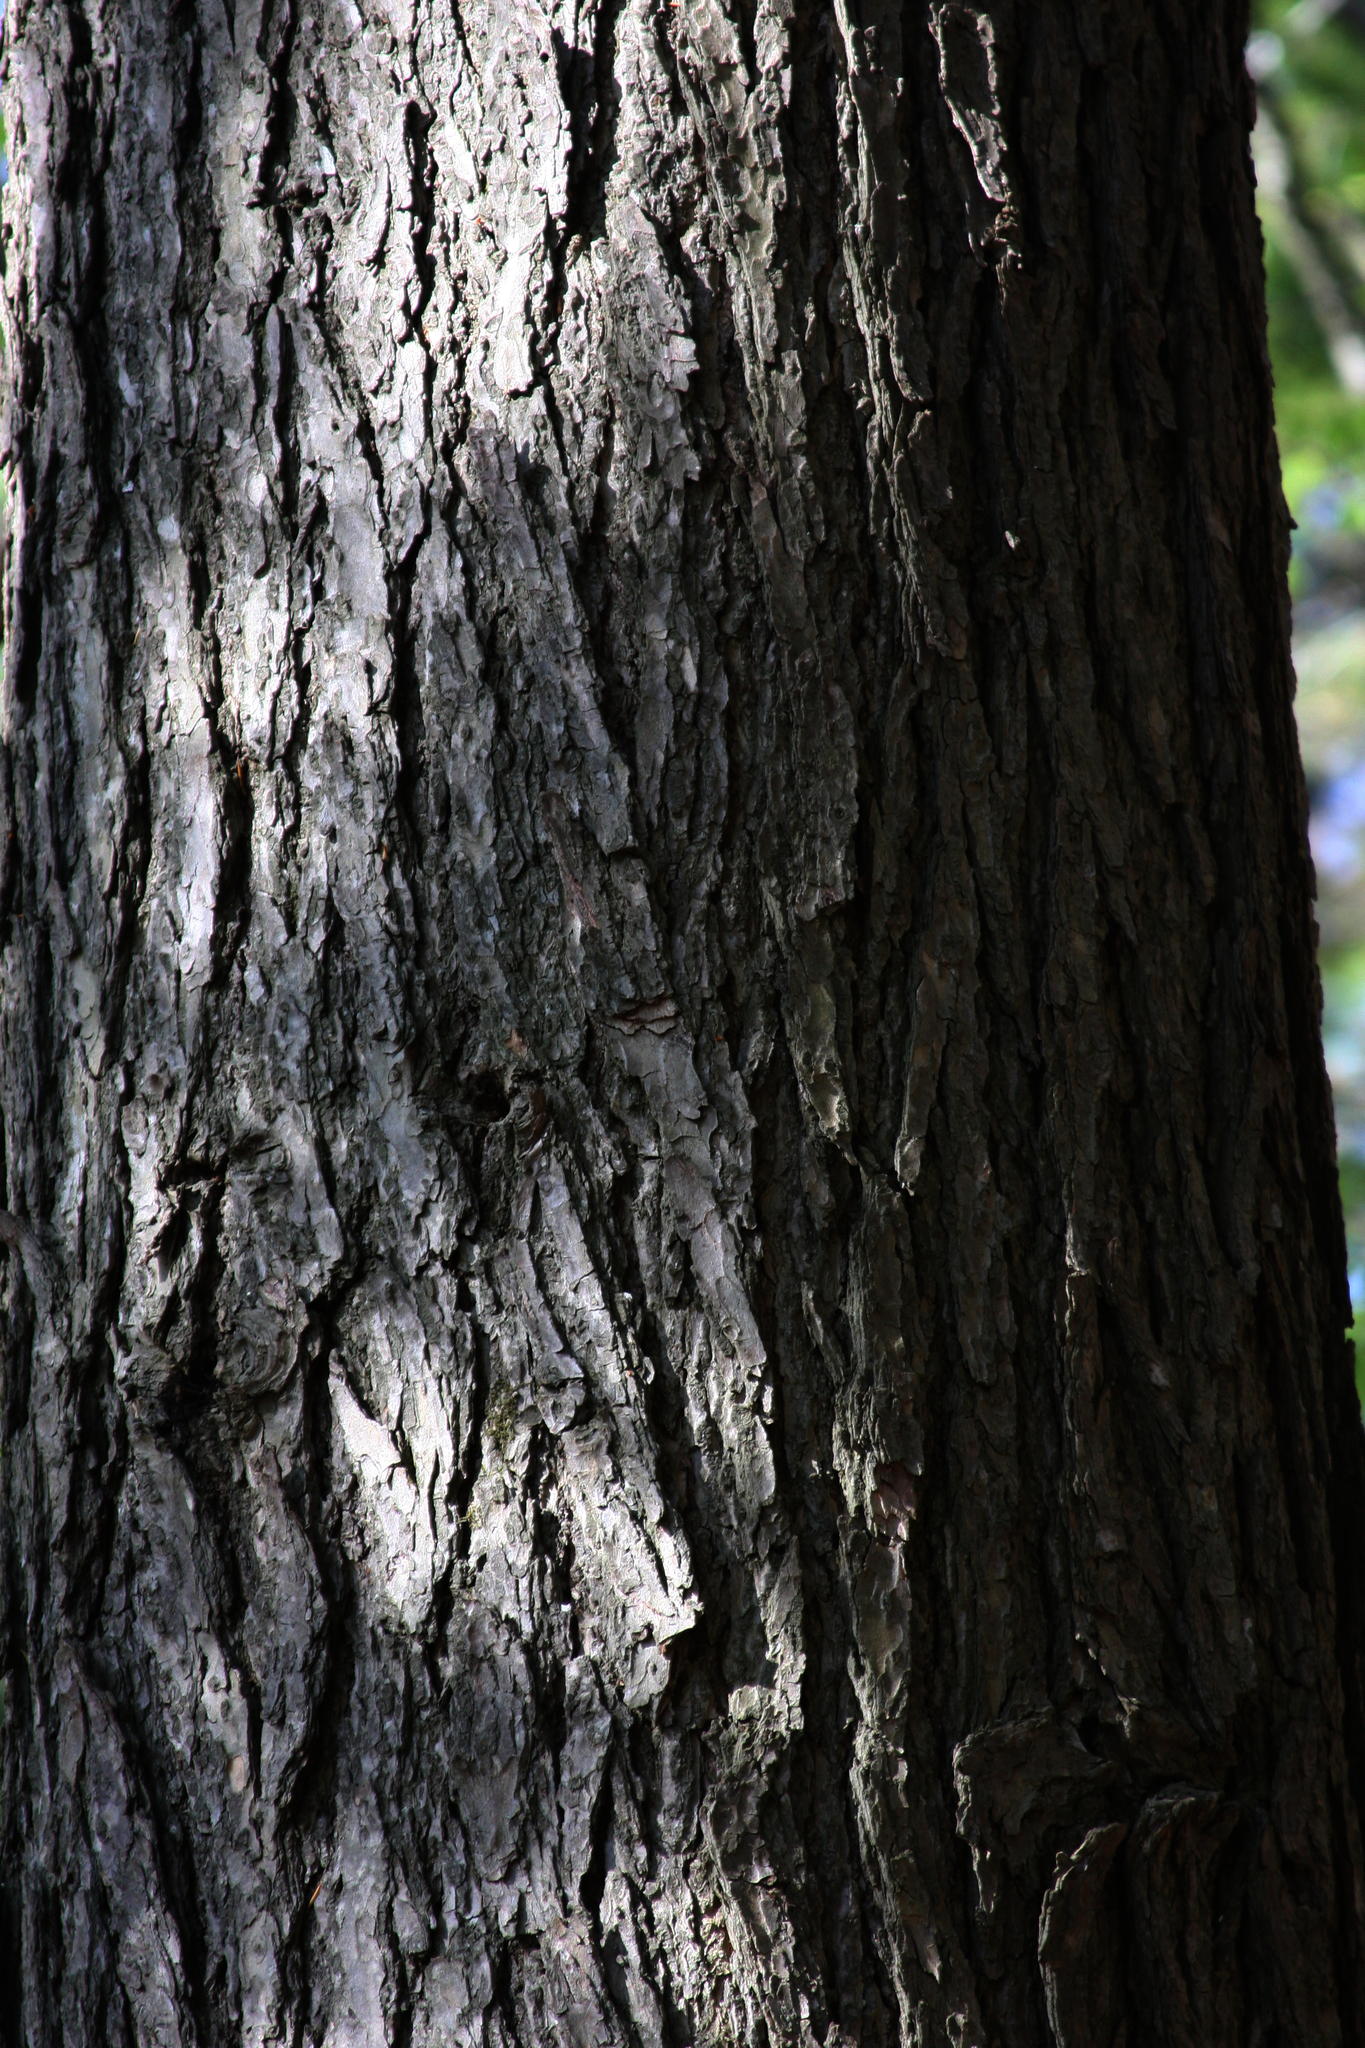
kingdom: Plantae
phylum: Tracheophyta
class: Pinopsida
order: Pinales
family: Pinaceae
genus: Tsuga
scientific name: Tsuga canadensis
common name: Eastern hemlock
